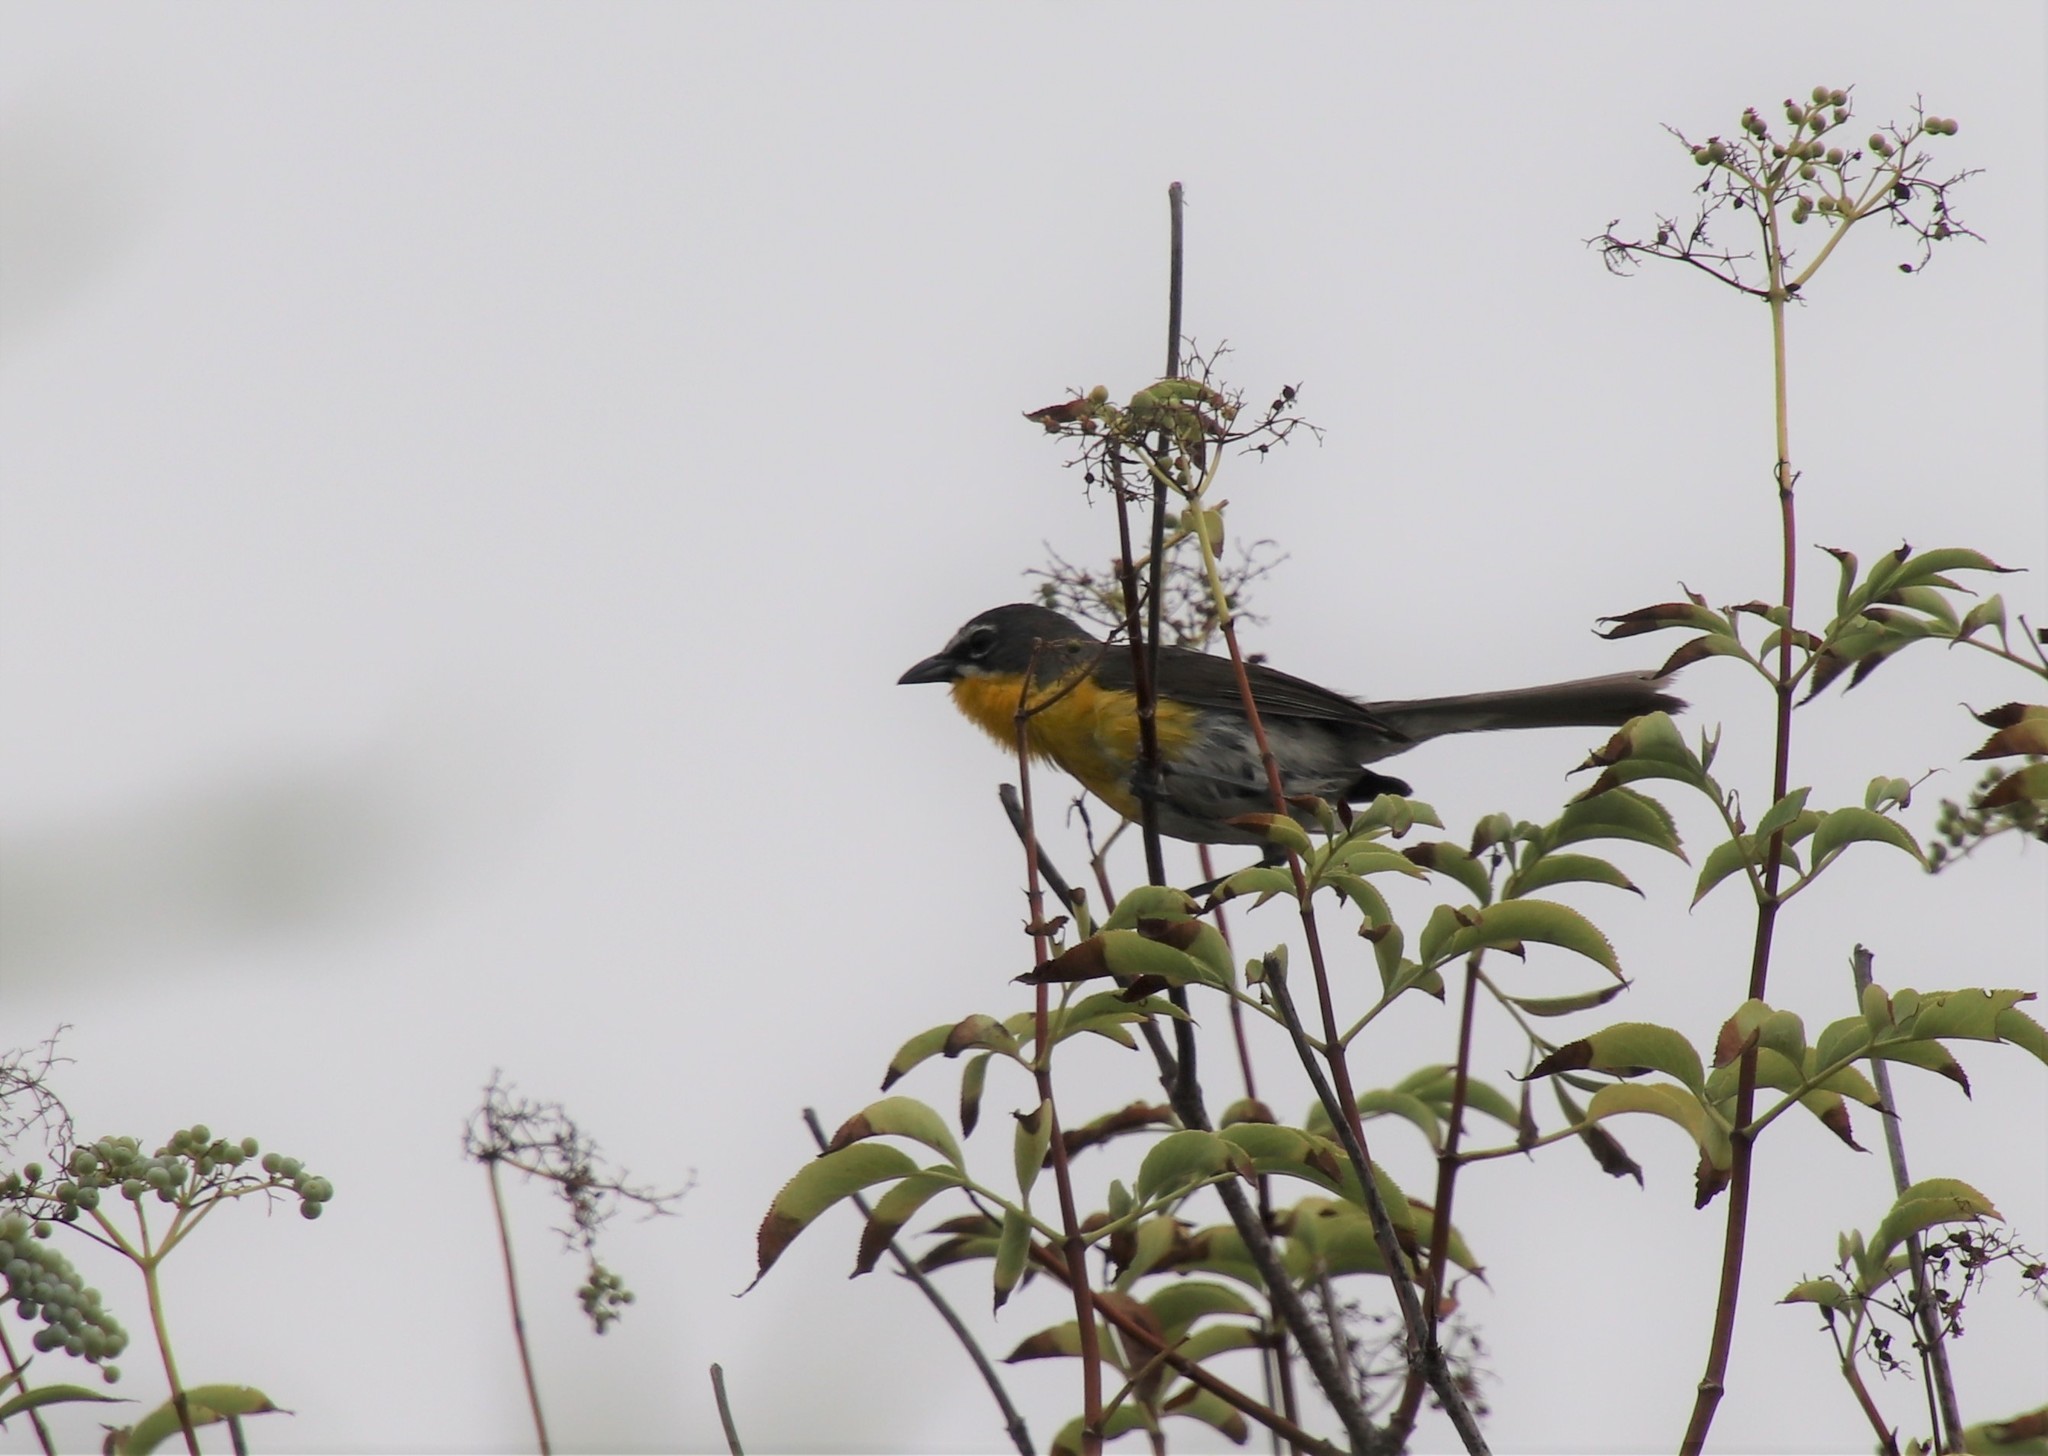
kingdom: Animalia
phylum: Chordata
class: Aves
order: Passeriformes
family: Parulidae
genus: Icteria
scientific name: Icteria virens
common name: Yellow-breasted chat
